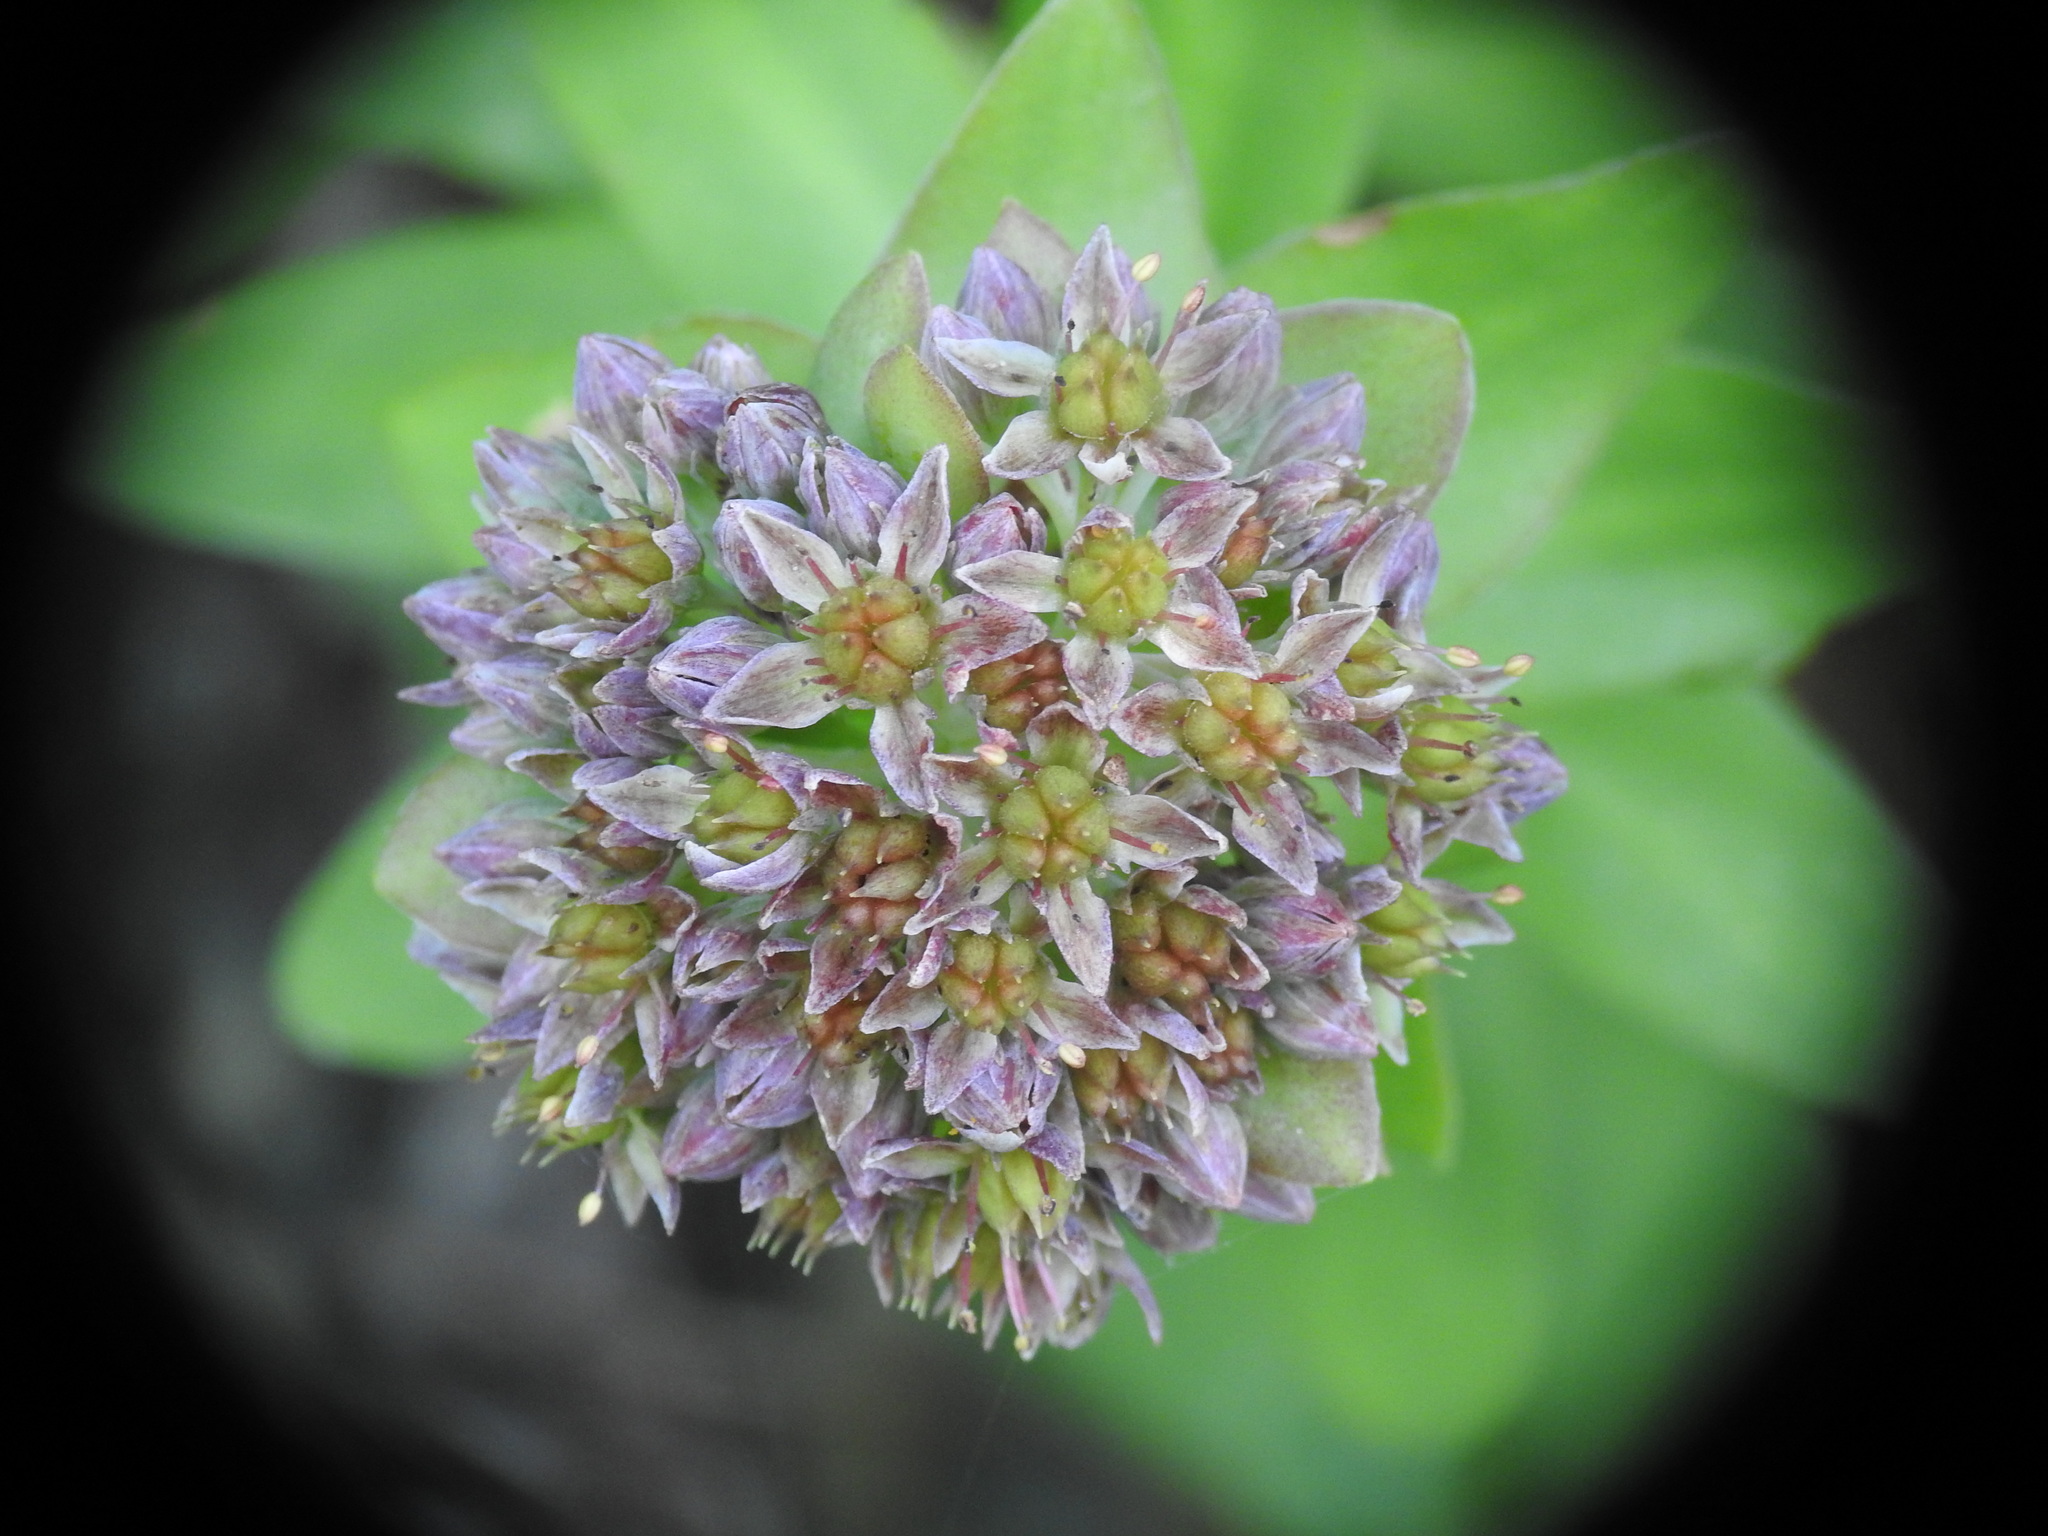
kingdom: Plantae
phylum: Tracheophyta
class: Magnoliopsida
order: Saxifragales
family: Crassulaceae
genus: Hylotelephium
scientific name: Hylotelephium anacampseros
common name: Love-restorer
